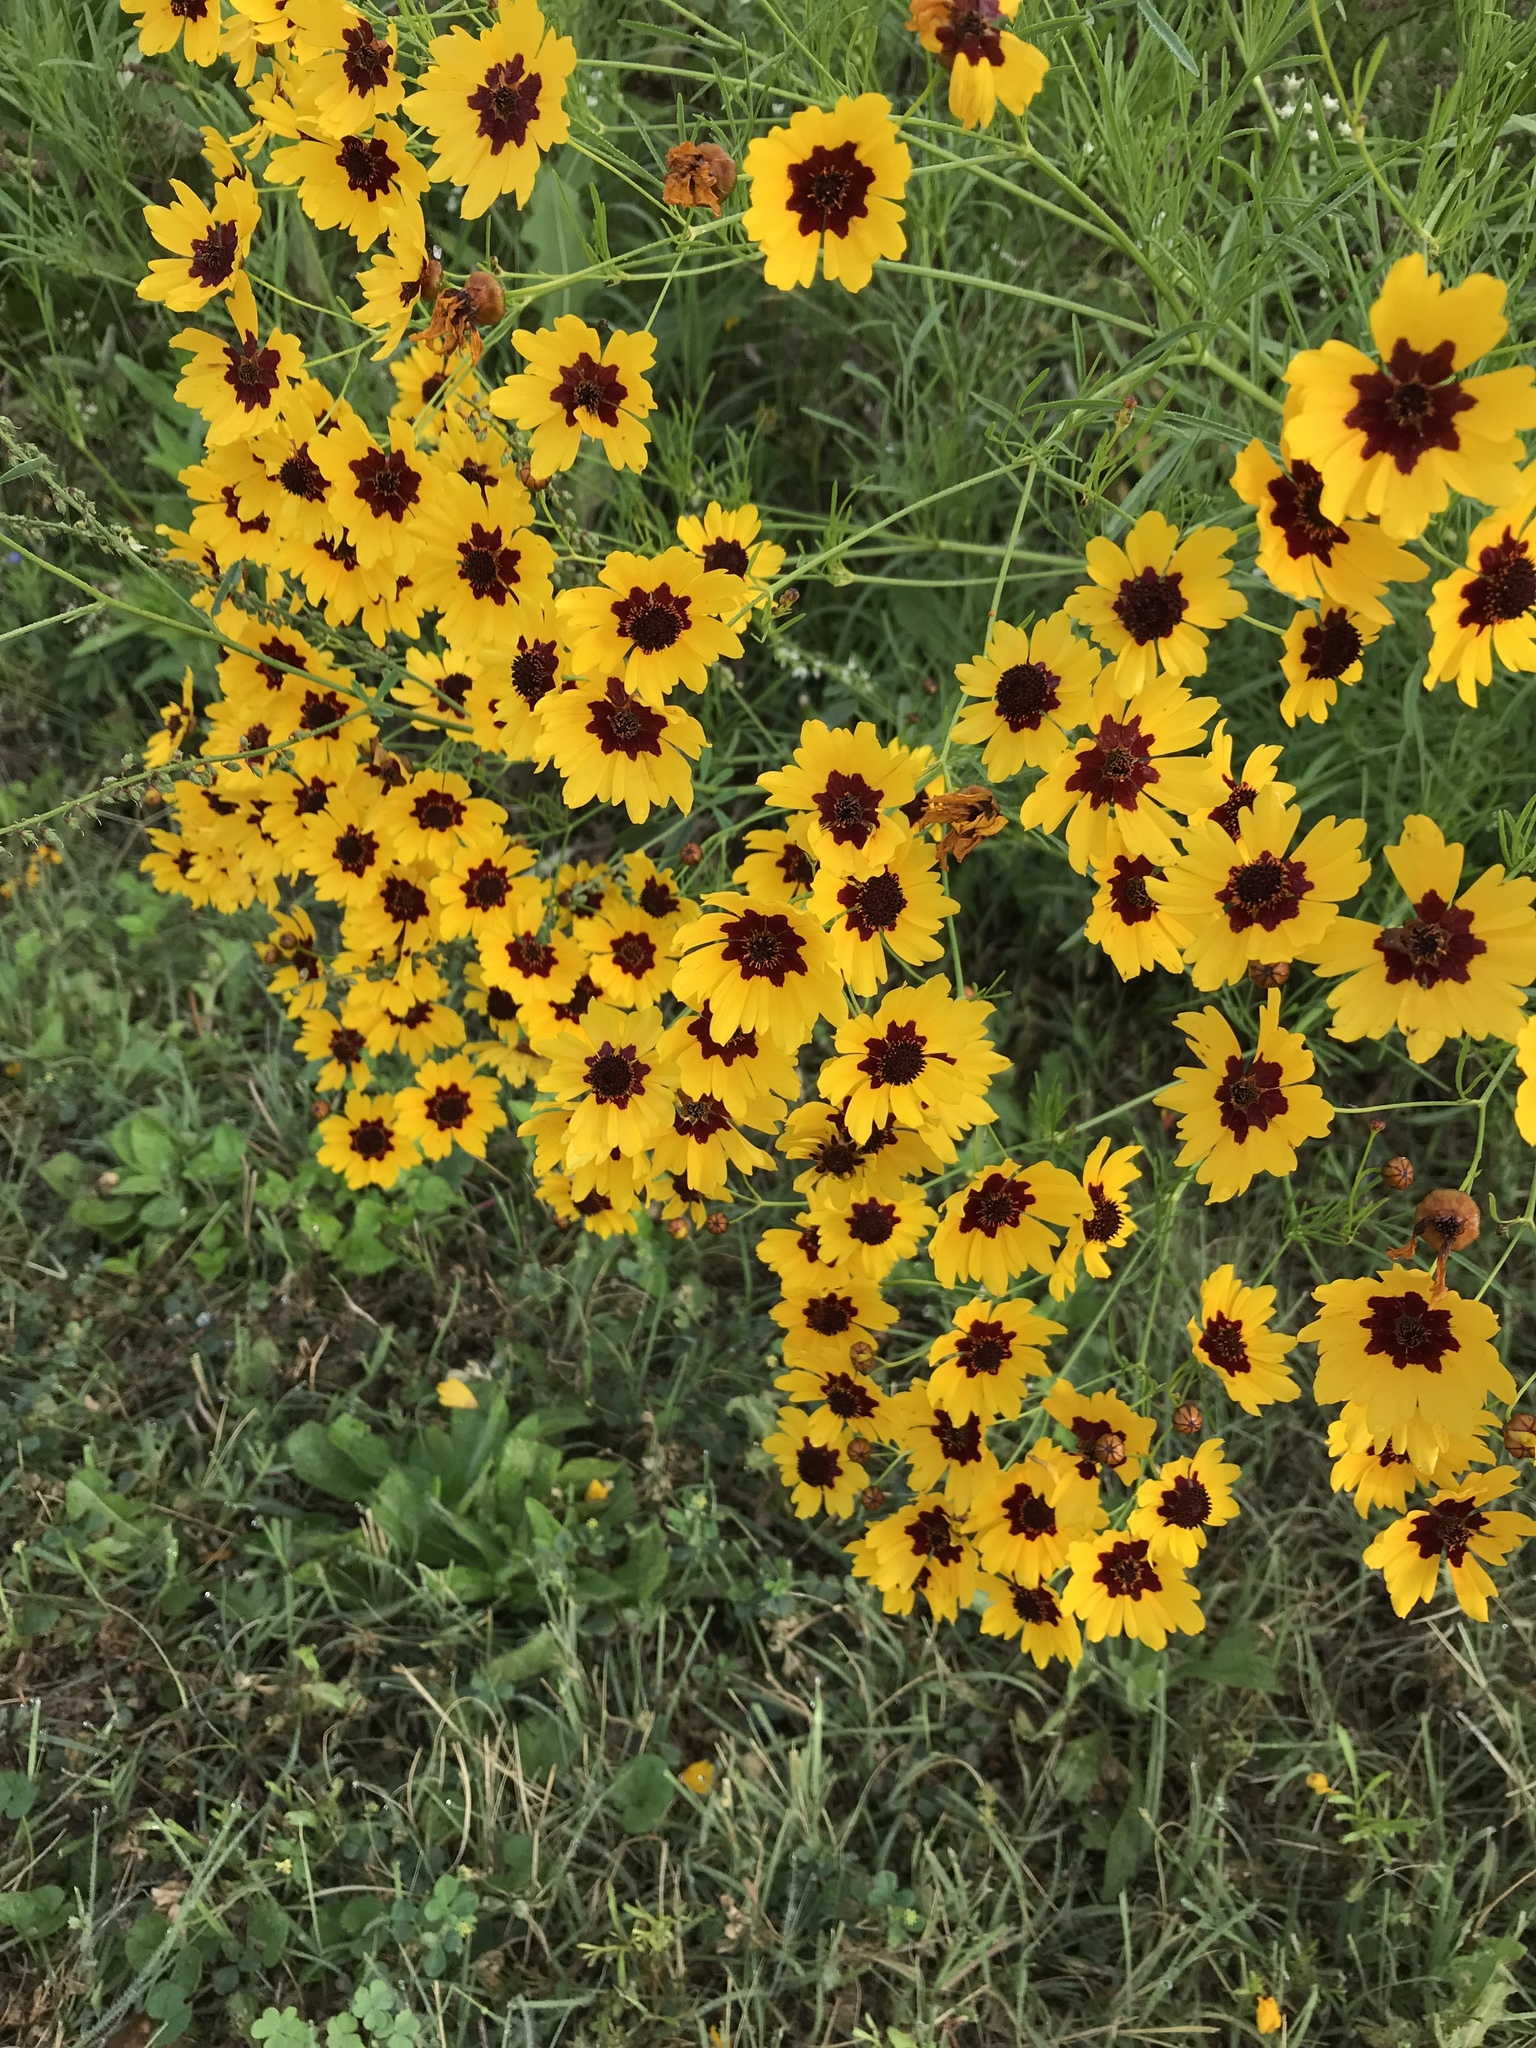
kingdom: Plantae
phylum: Tracheophyta
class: Magnoliopsida
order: Asterales
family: Asteraceae
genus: Coreopsis
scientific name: Coreopsis tinctoria
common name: Garden tickseed
